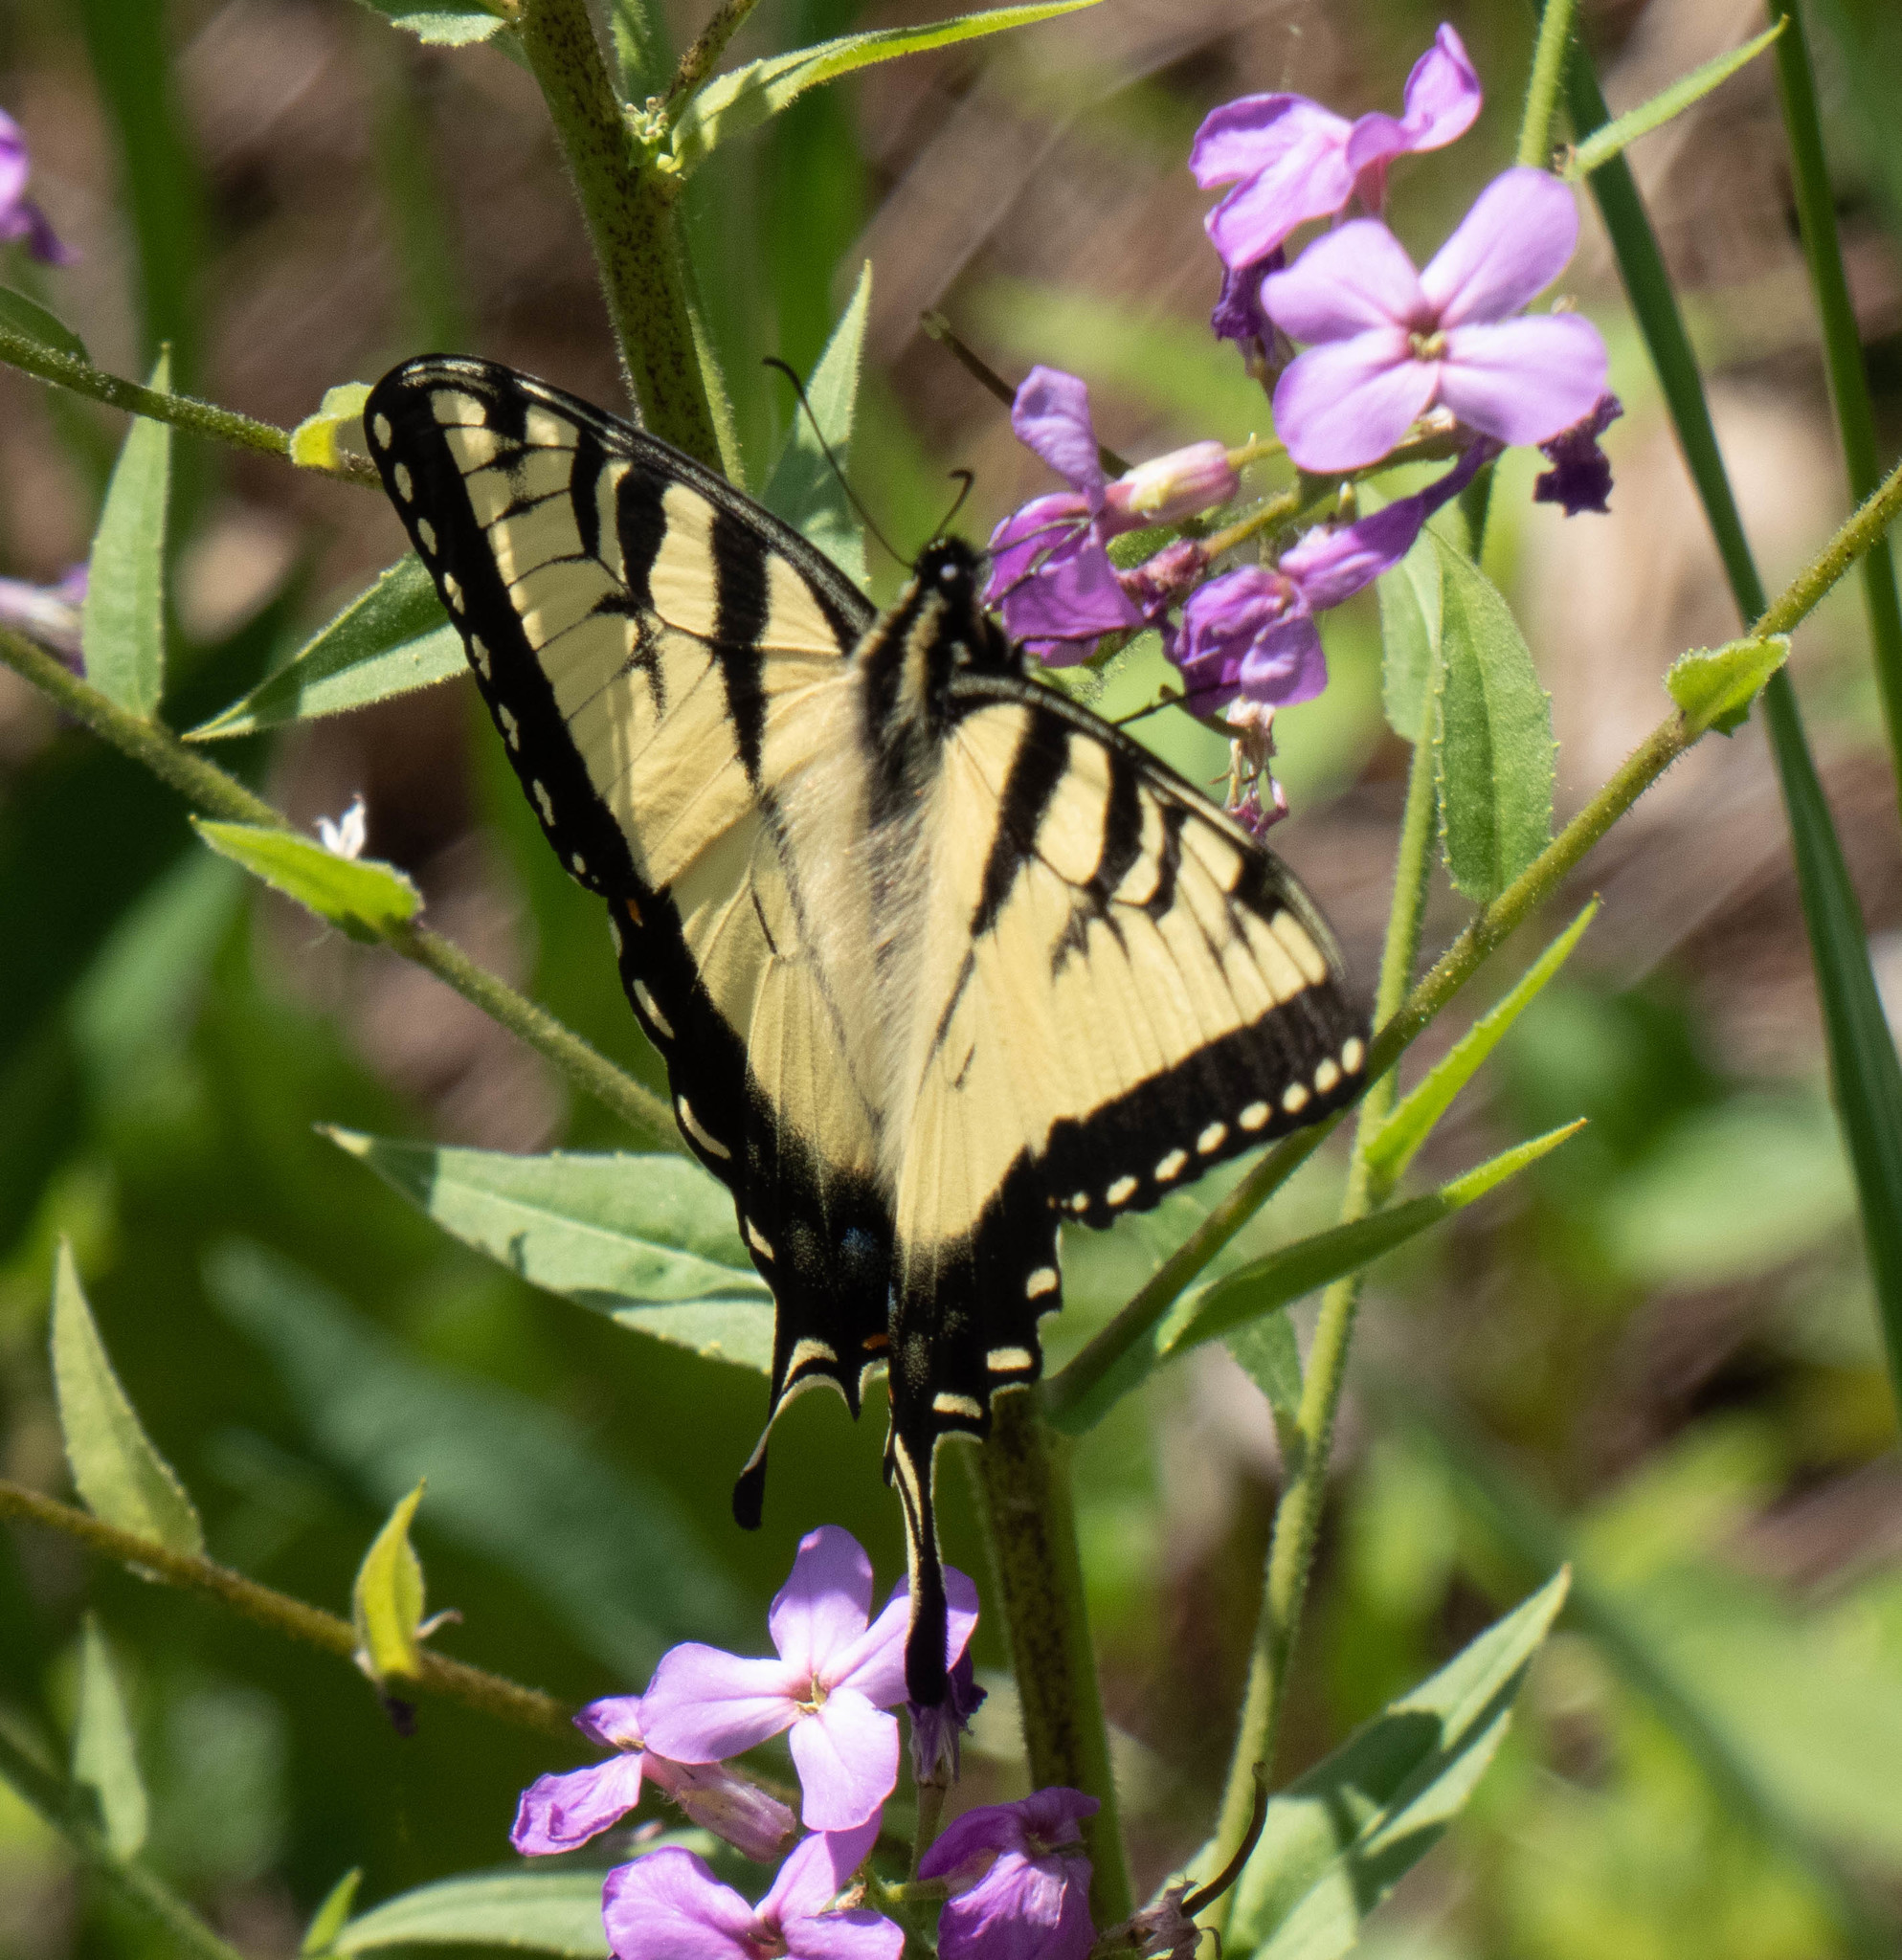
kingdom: Animalia
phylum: Arthropoda
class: Insecta
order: Lepidoptera
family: Papilionidae
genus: Papilio
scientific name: Papilio glaucus
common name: Tiger swallowtail
